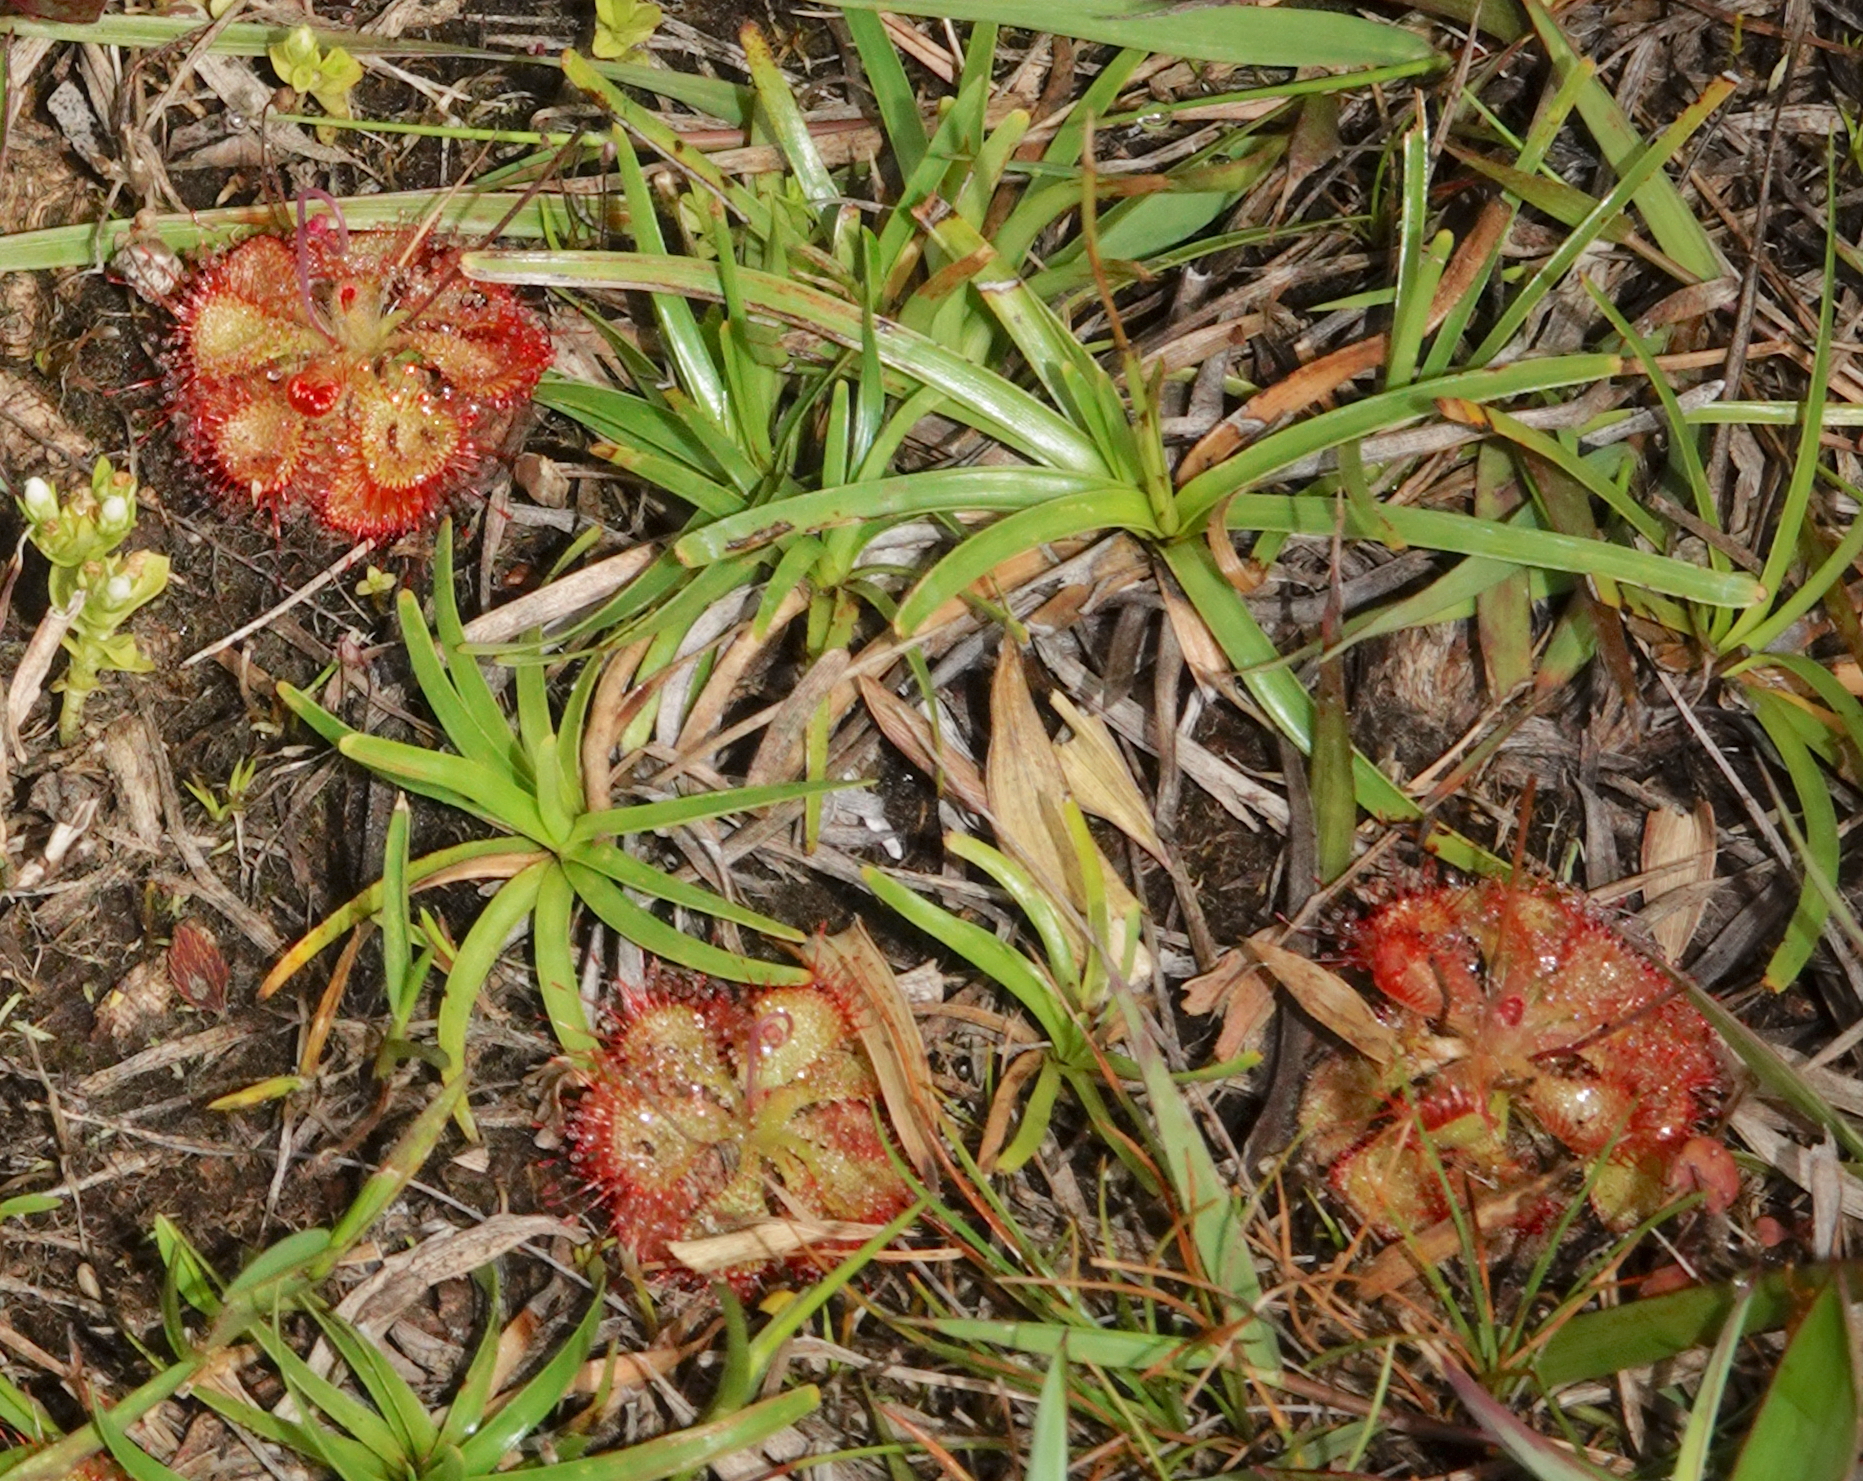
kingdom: Plantae
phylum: Tracheophyta
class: Magnoliopsida
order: Caryophyllales
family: Droseraceae
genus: Drosera
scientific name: Drosera spatulata
